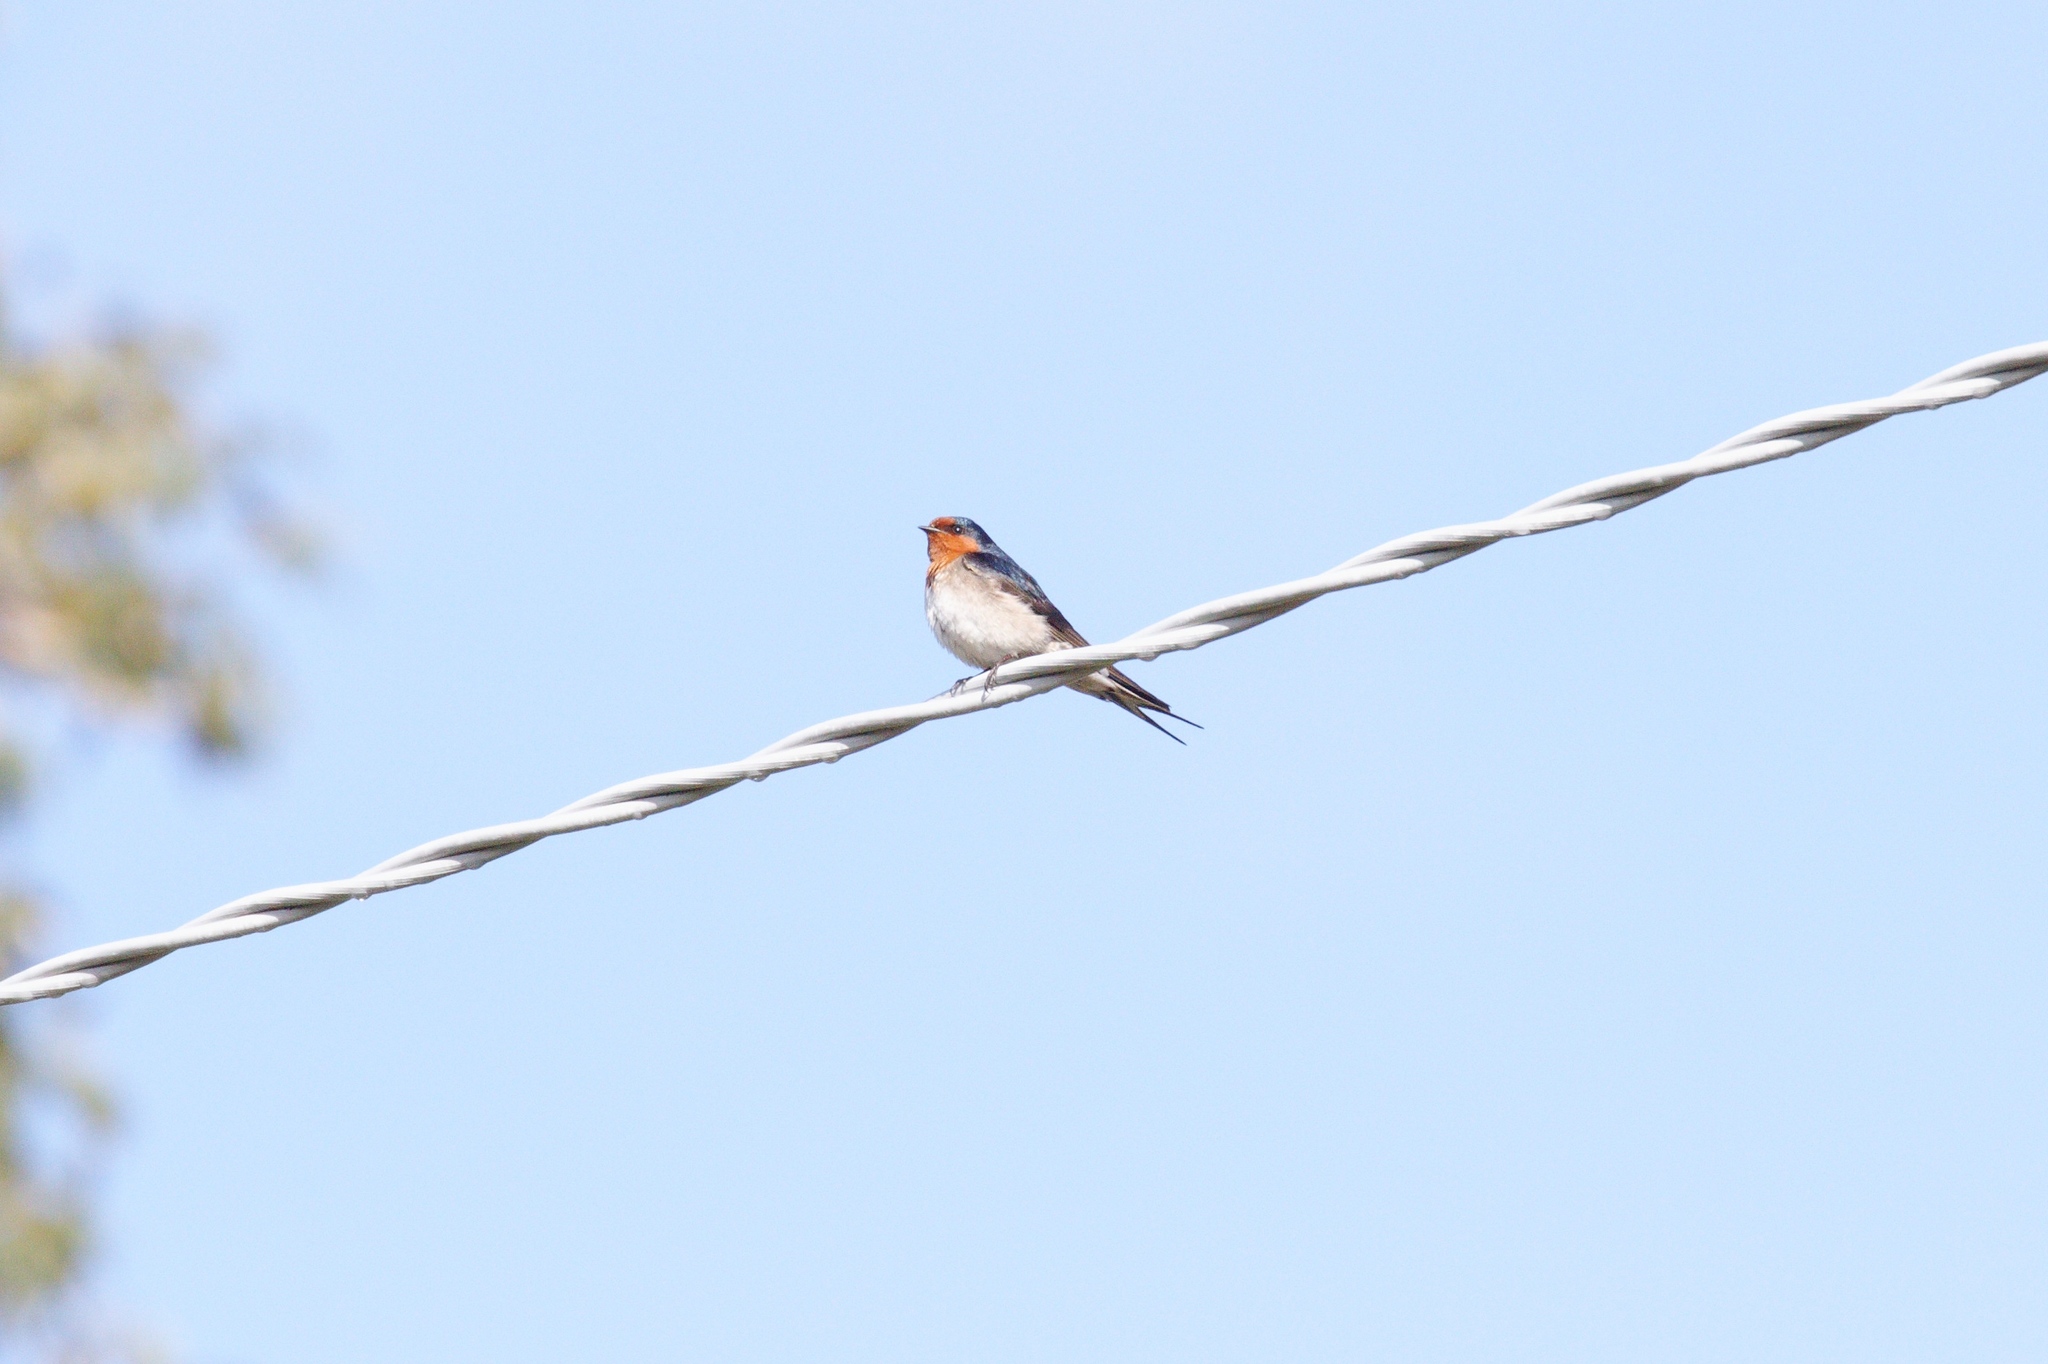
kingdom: Animalia
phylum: Chordata
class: Aves
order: Passeriformes
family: Hirundinidae
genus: Hirundo
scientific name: Hirundo neoxena
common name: Welcome swallow
